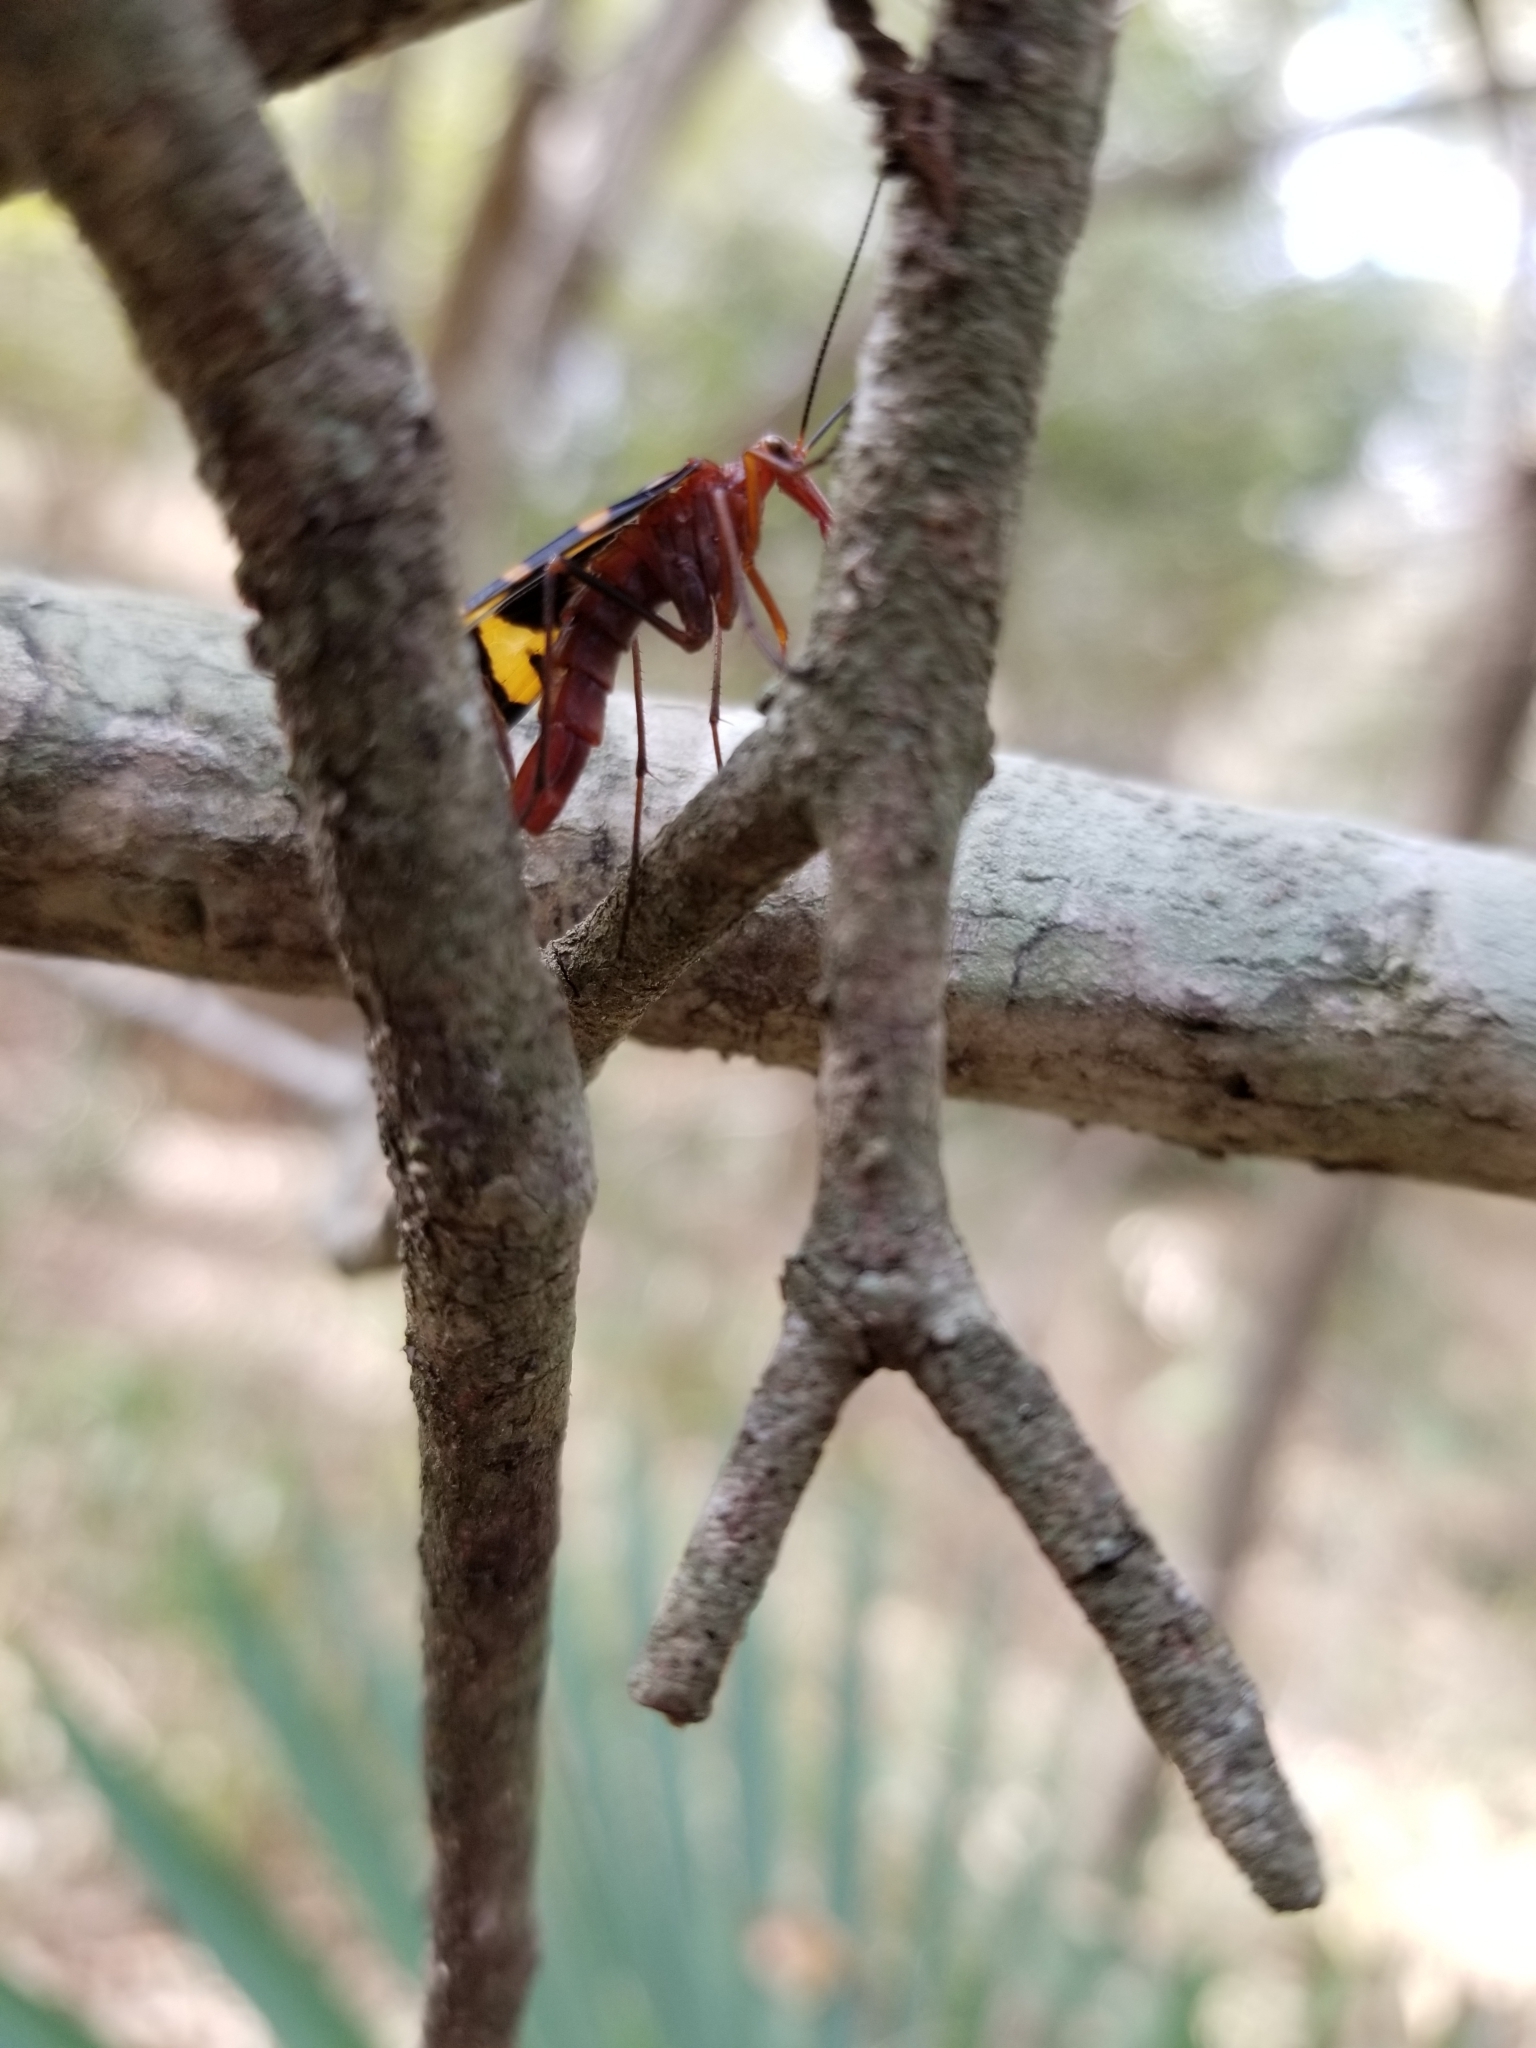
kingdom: Animalia
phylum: Arthropoda
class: Insecta
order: Mecoptera
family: Panorpidae
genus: Panorpa
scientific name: Panorpa nuptialis
